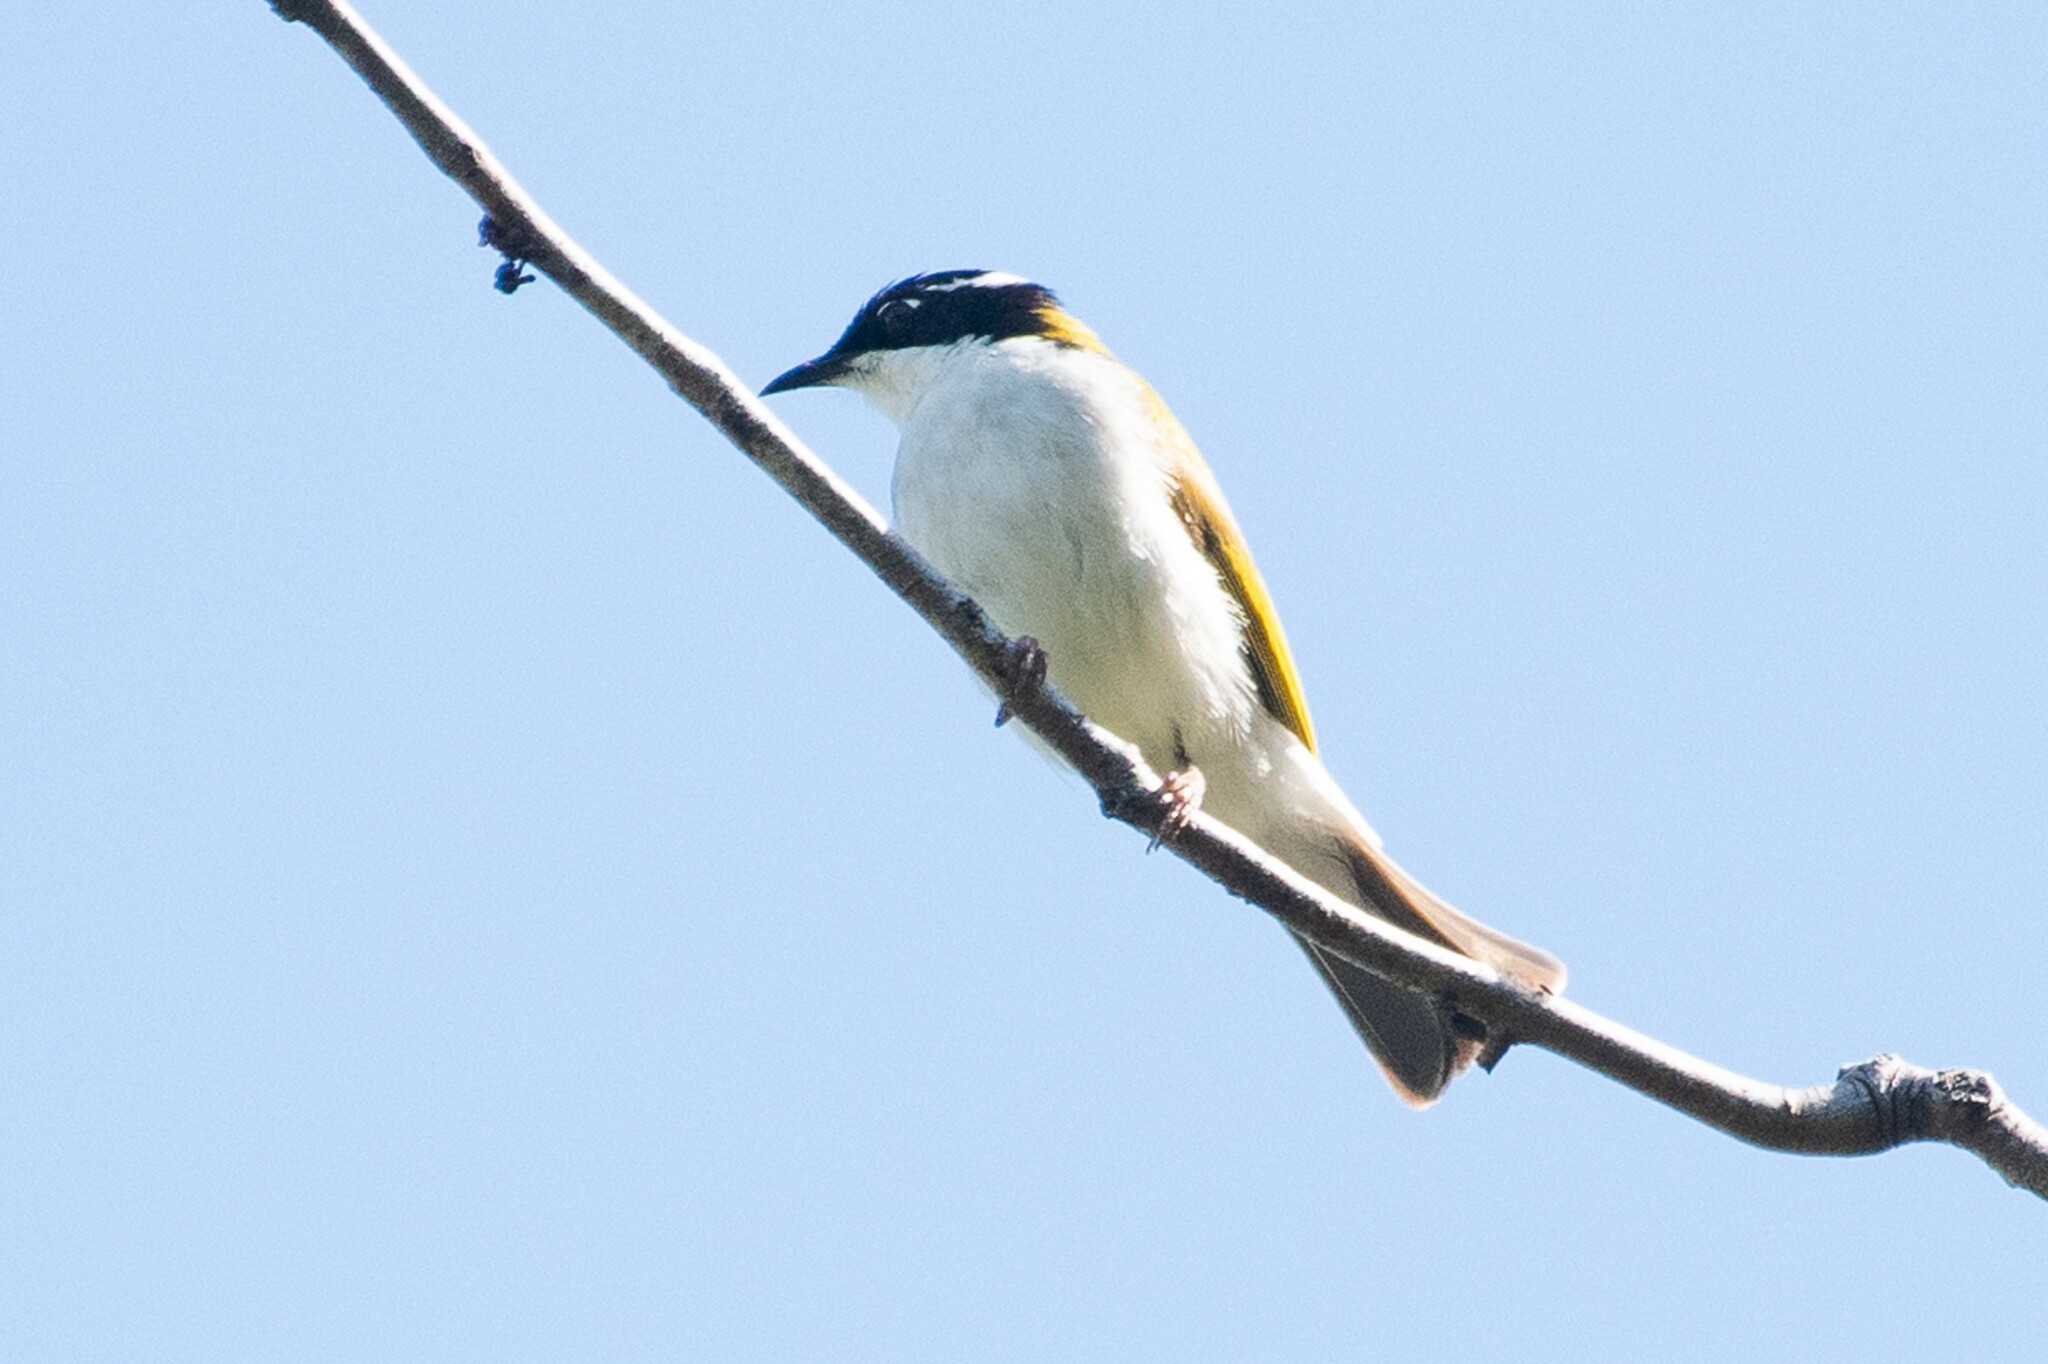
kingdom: Animalia
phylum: Chordata
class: Aves
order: Passeriformes
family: Meliphagidae
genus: Melithreptus
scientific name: Melithreptus albogularis
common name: White-throated honeyeater
